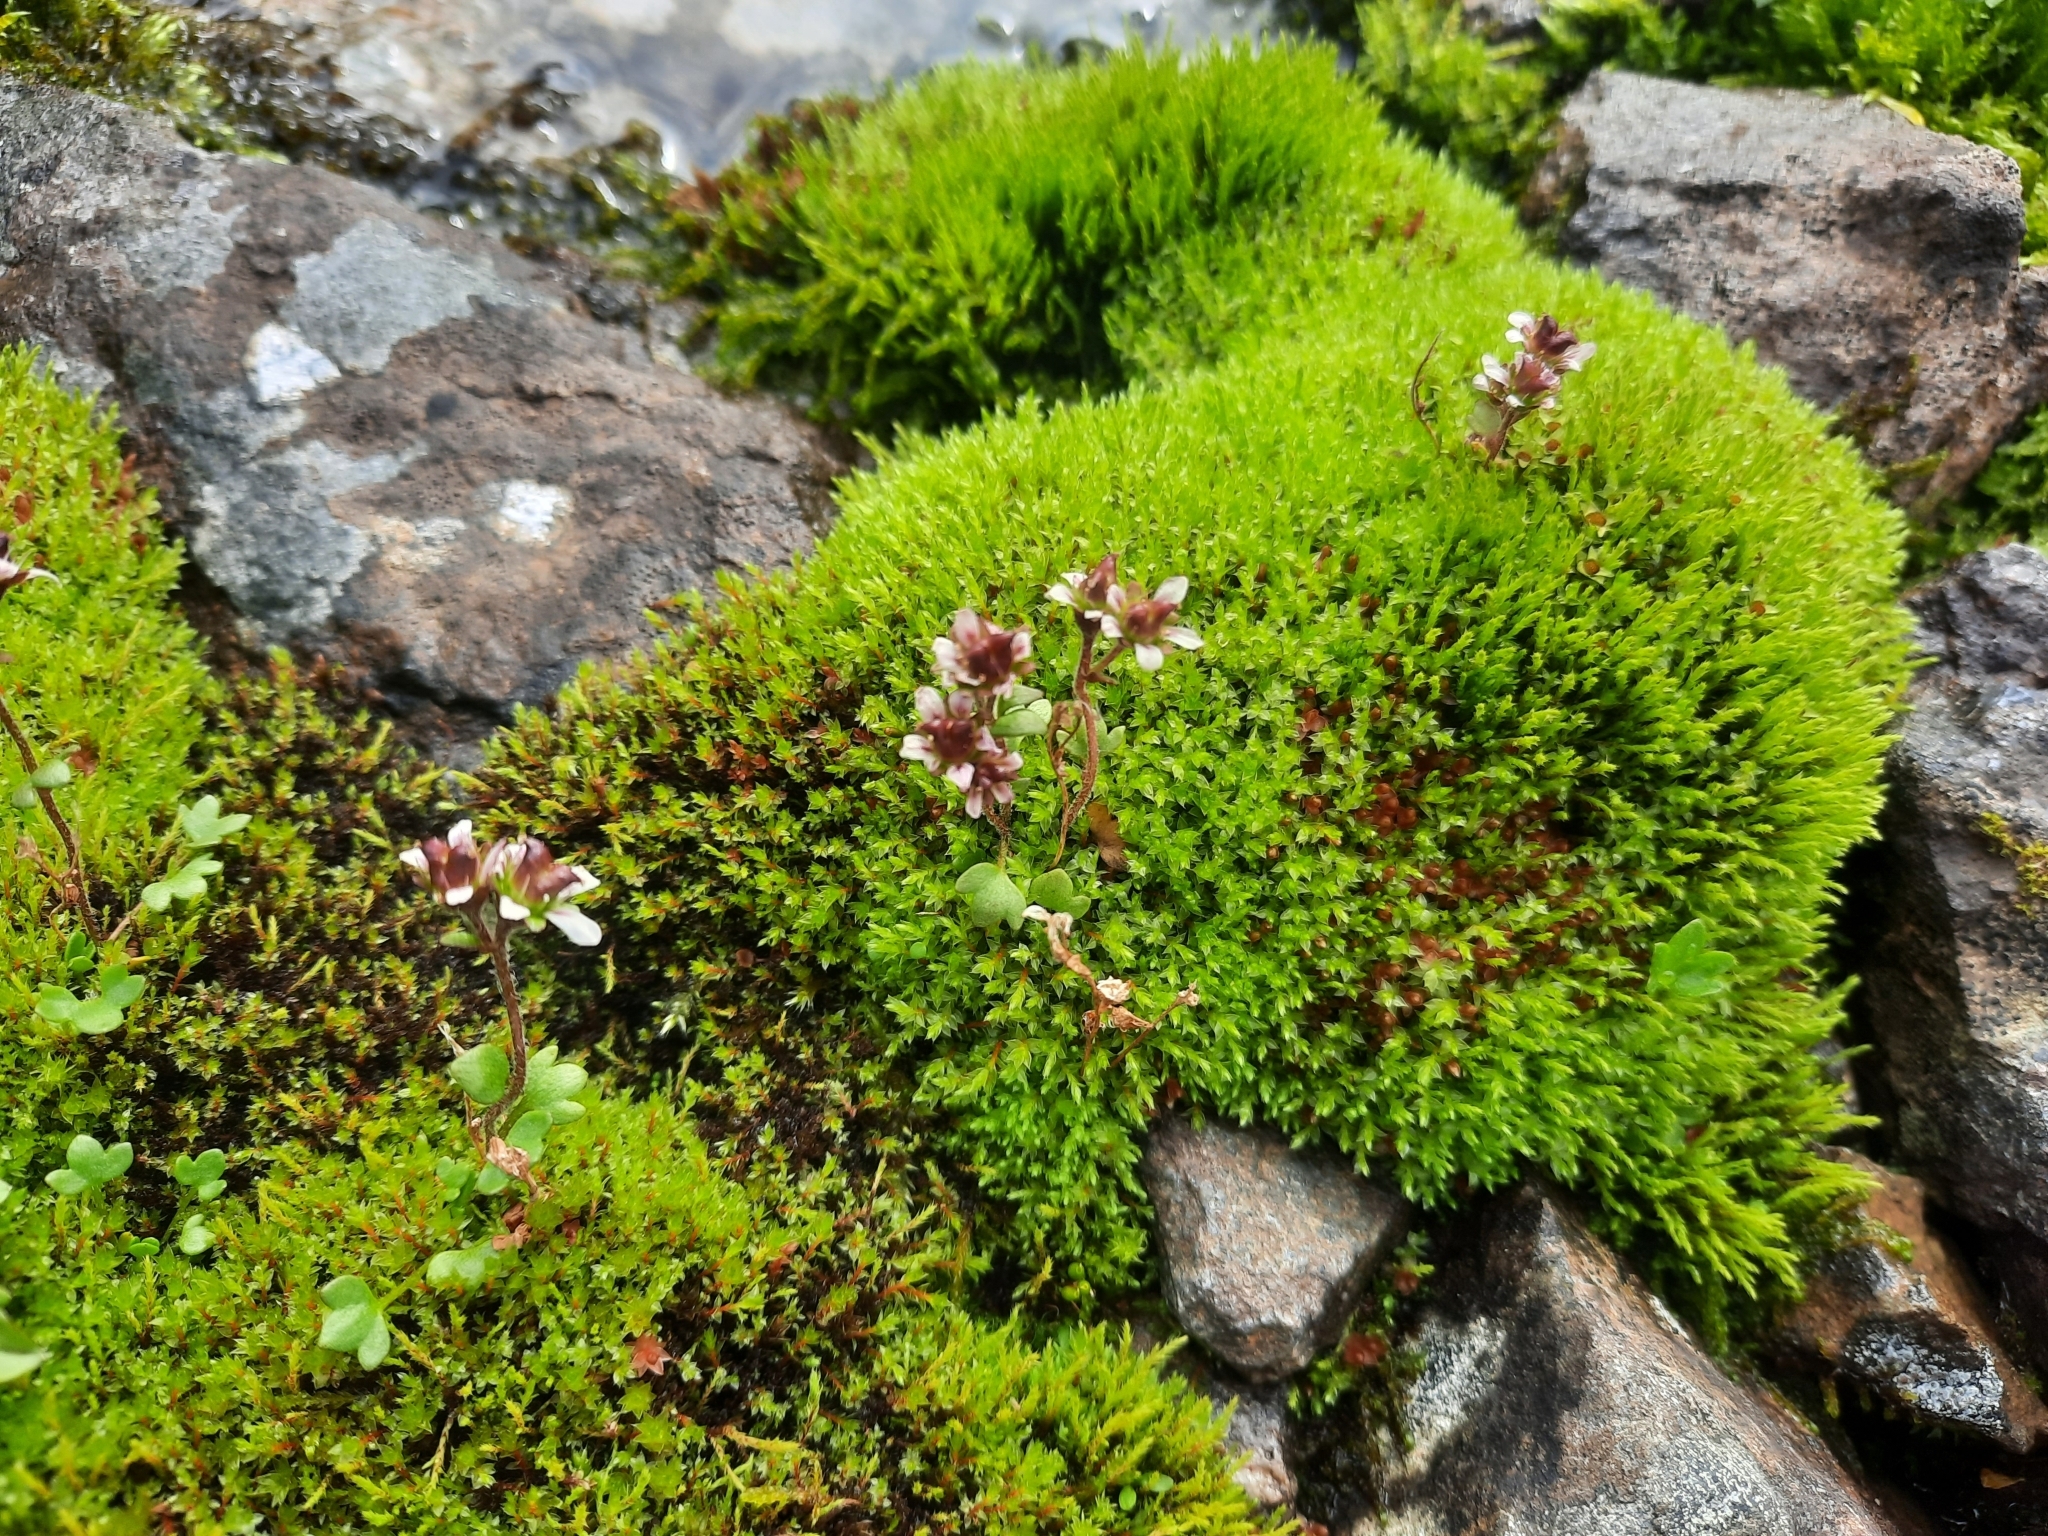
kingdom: Plantae
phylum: Tracheophyta
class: Magnoliopsida
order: Saxifragales
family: Saxifragaceae
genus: Saxifraga
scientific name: Saxifraga hyperborea
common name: Arctic saxifrage
